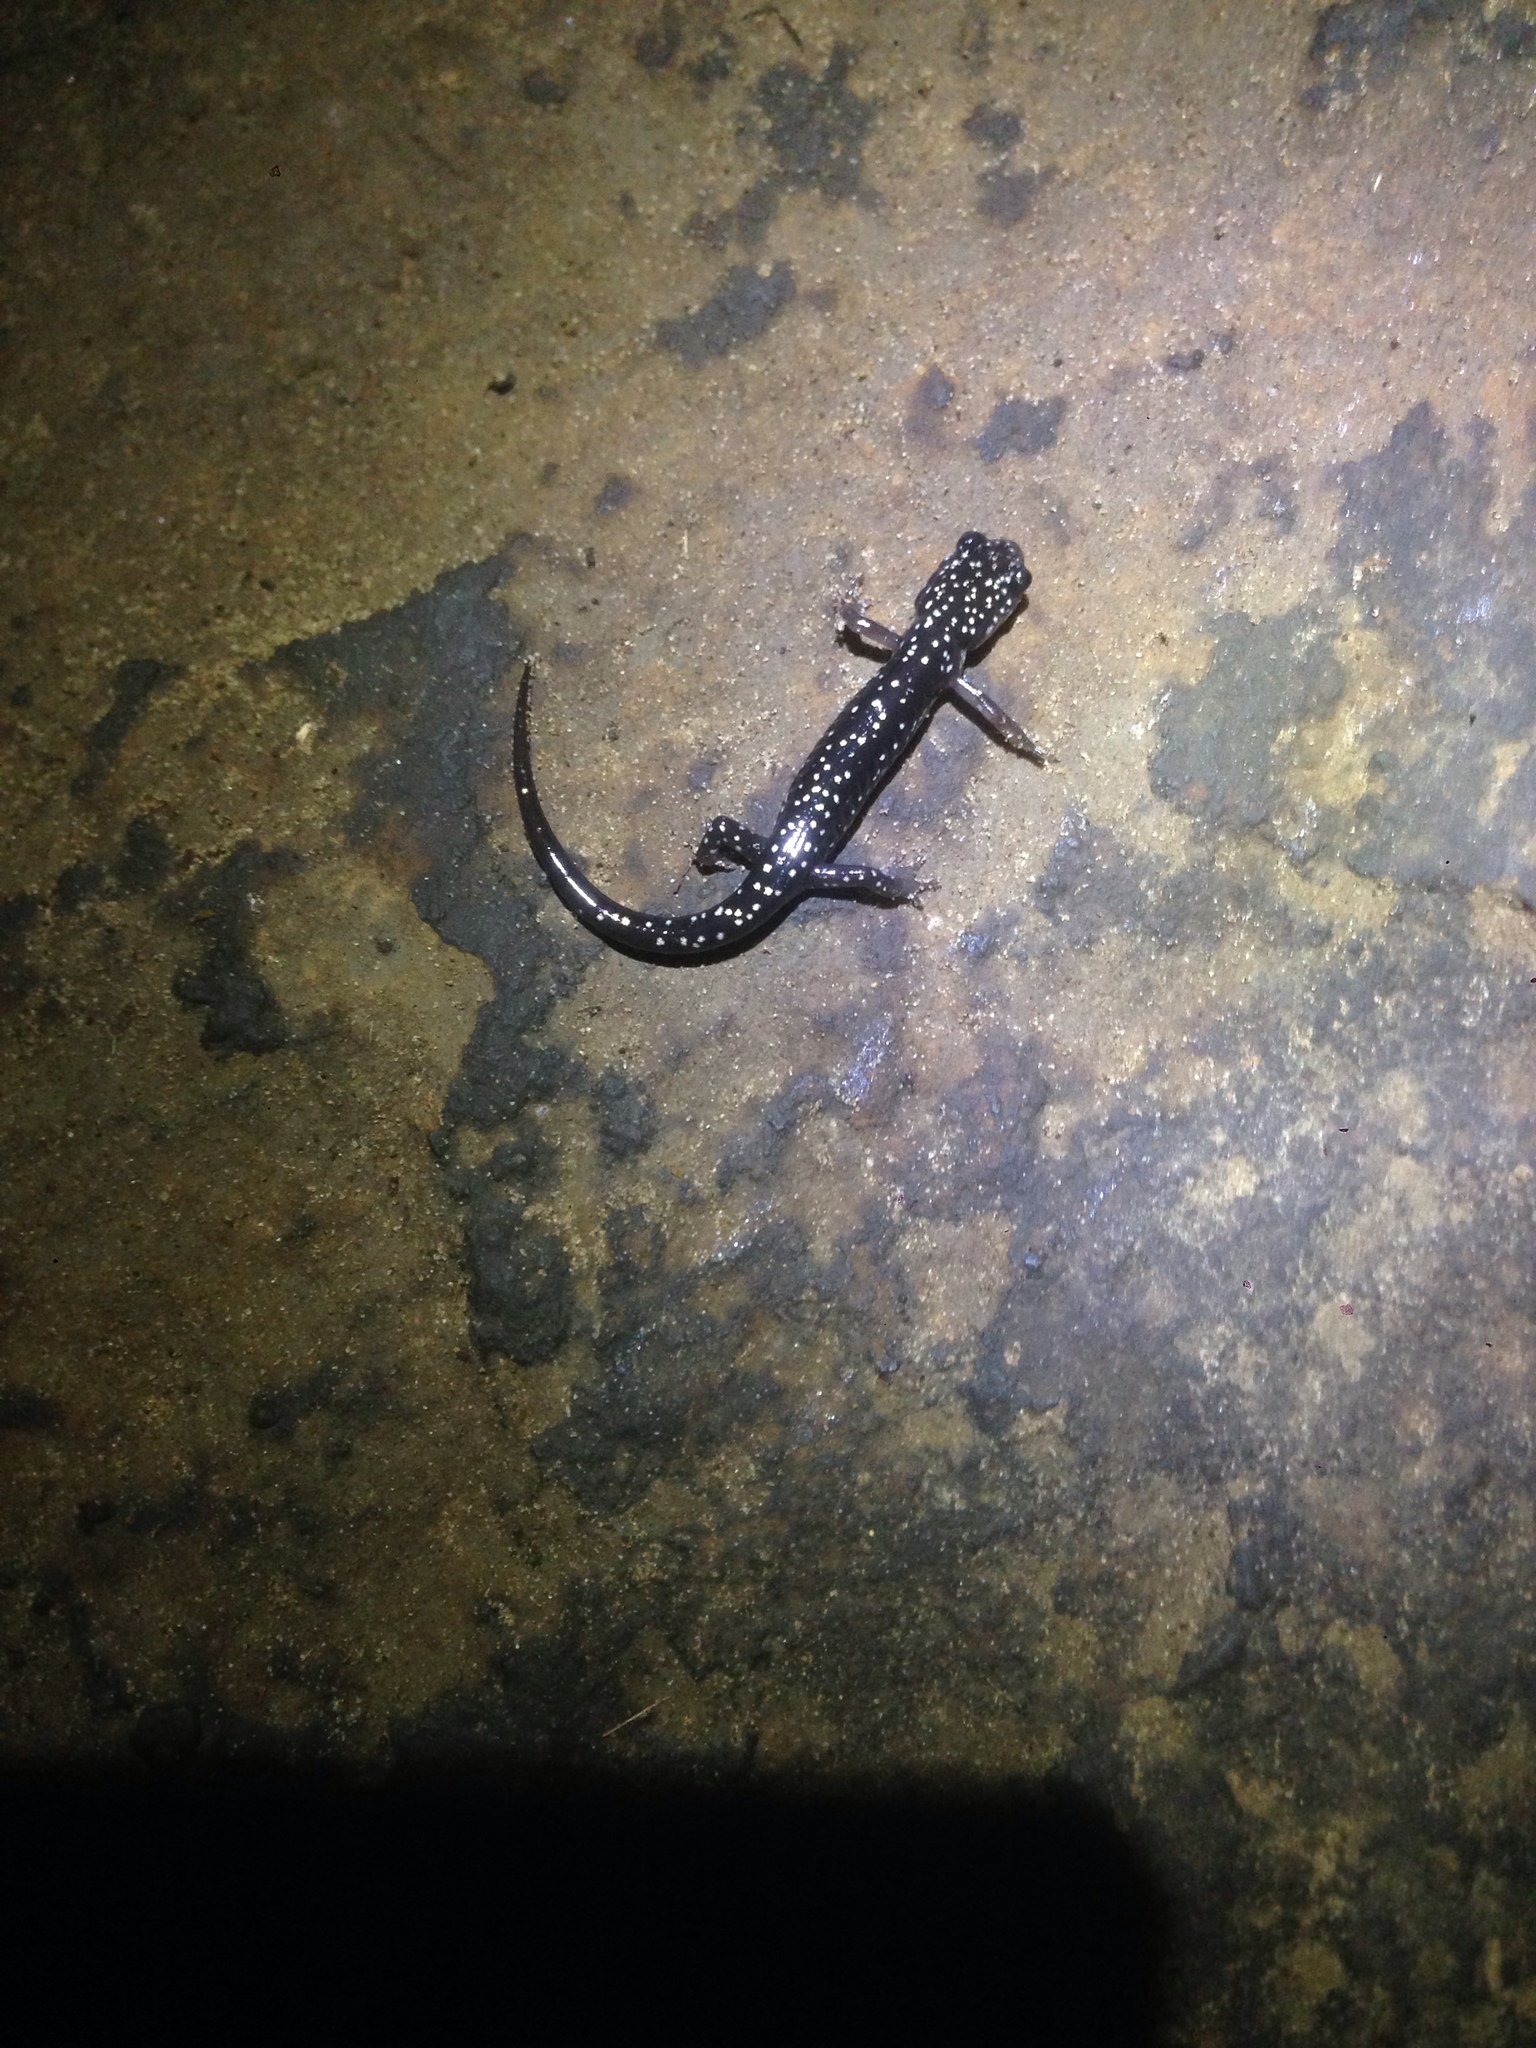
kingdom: Animalia
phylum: Chordata
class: Amphibia
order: Caudata
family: Plethodontidae
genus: Plethodon
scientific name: Plethodon glutinosus
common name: Northern slimy salamander
